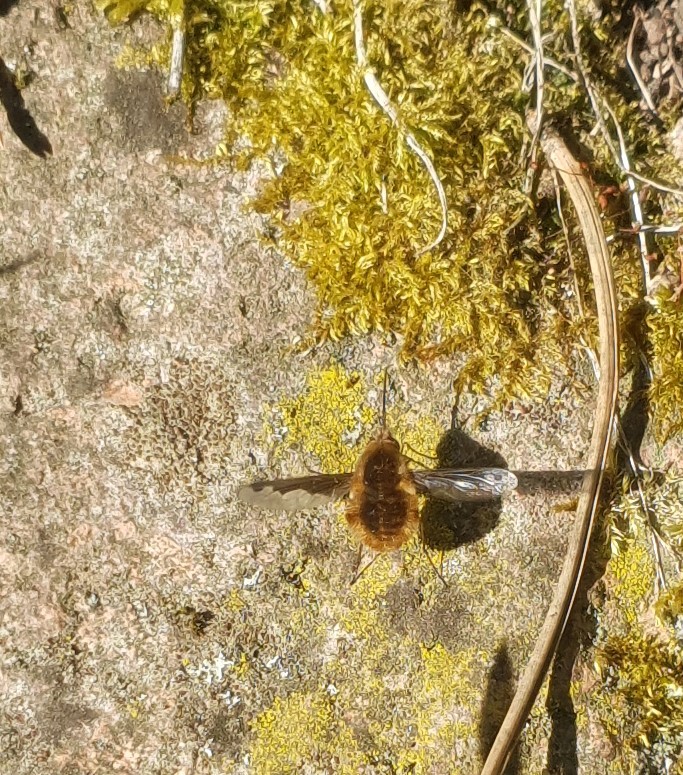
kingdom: Animalia
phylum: Arthropoda
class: Insecta
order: Diptera
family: Bombyliidae
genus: Bombylius
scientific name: Bombylius major
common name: Bee fly
